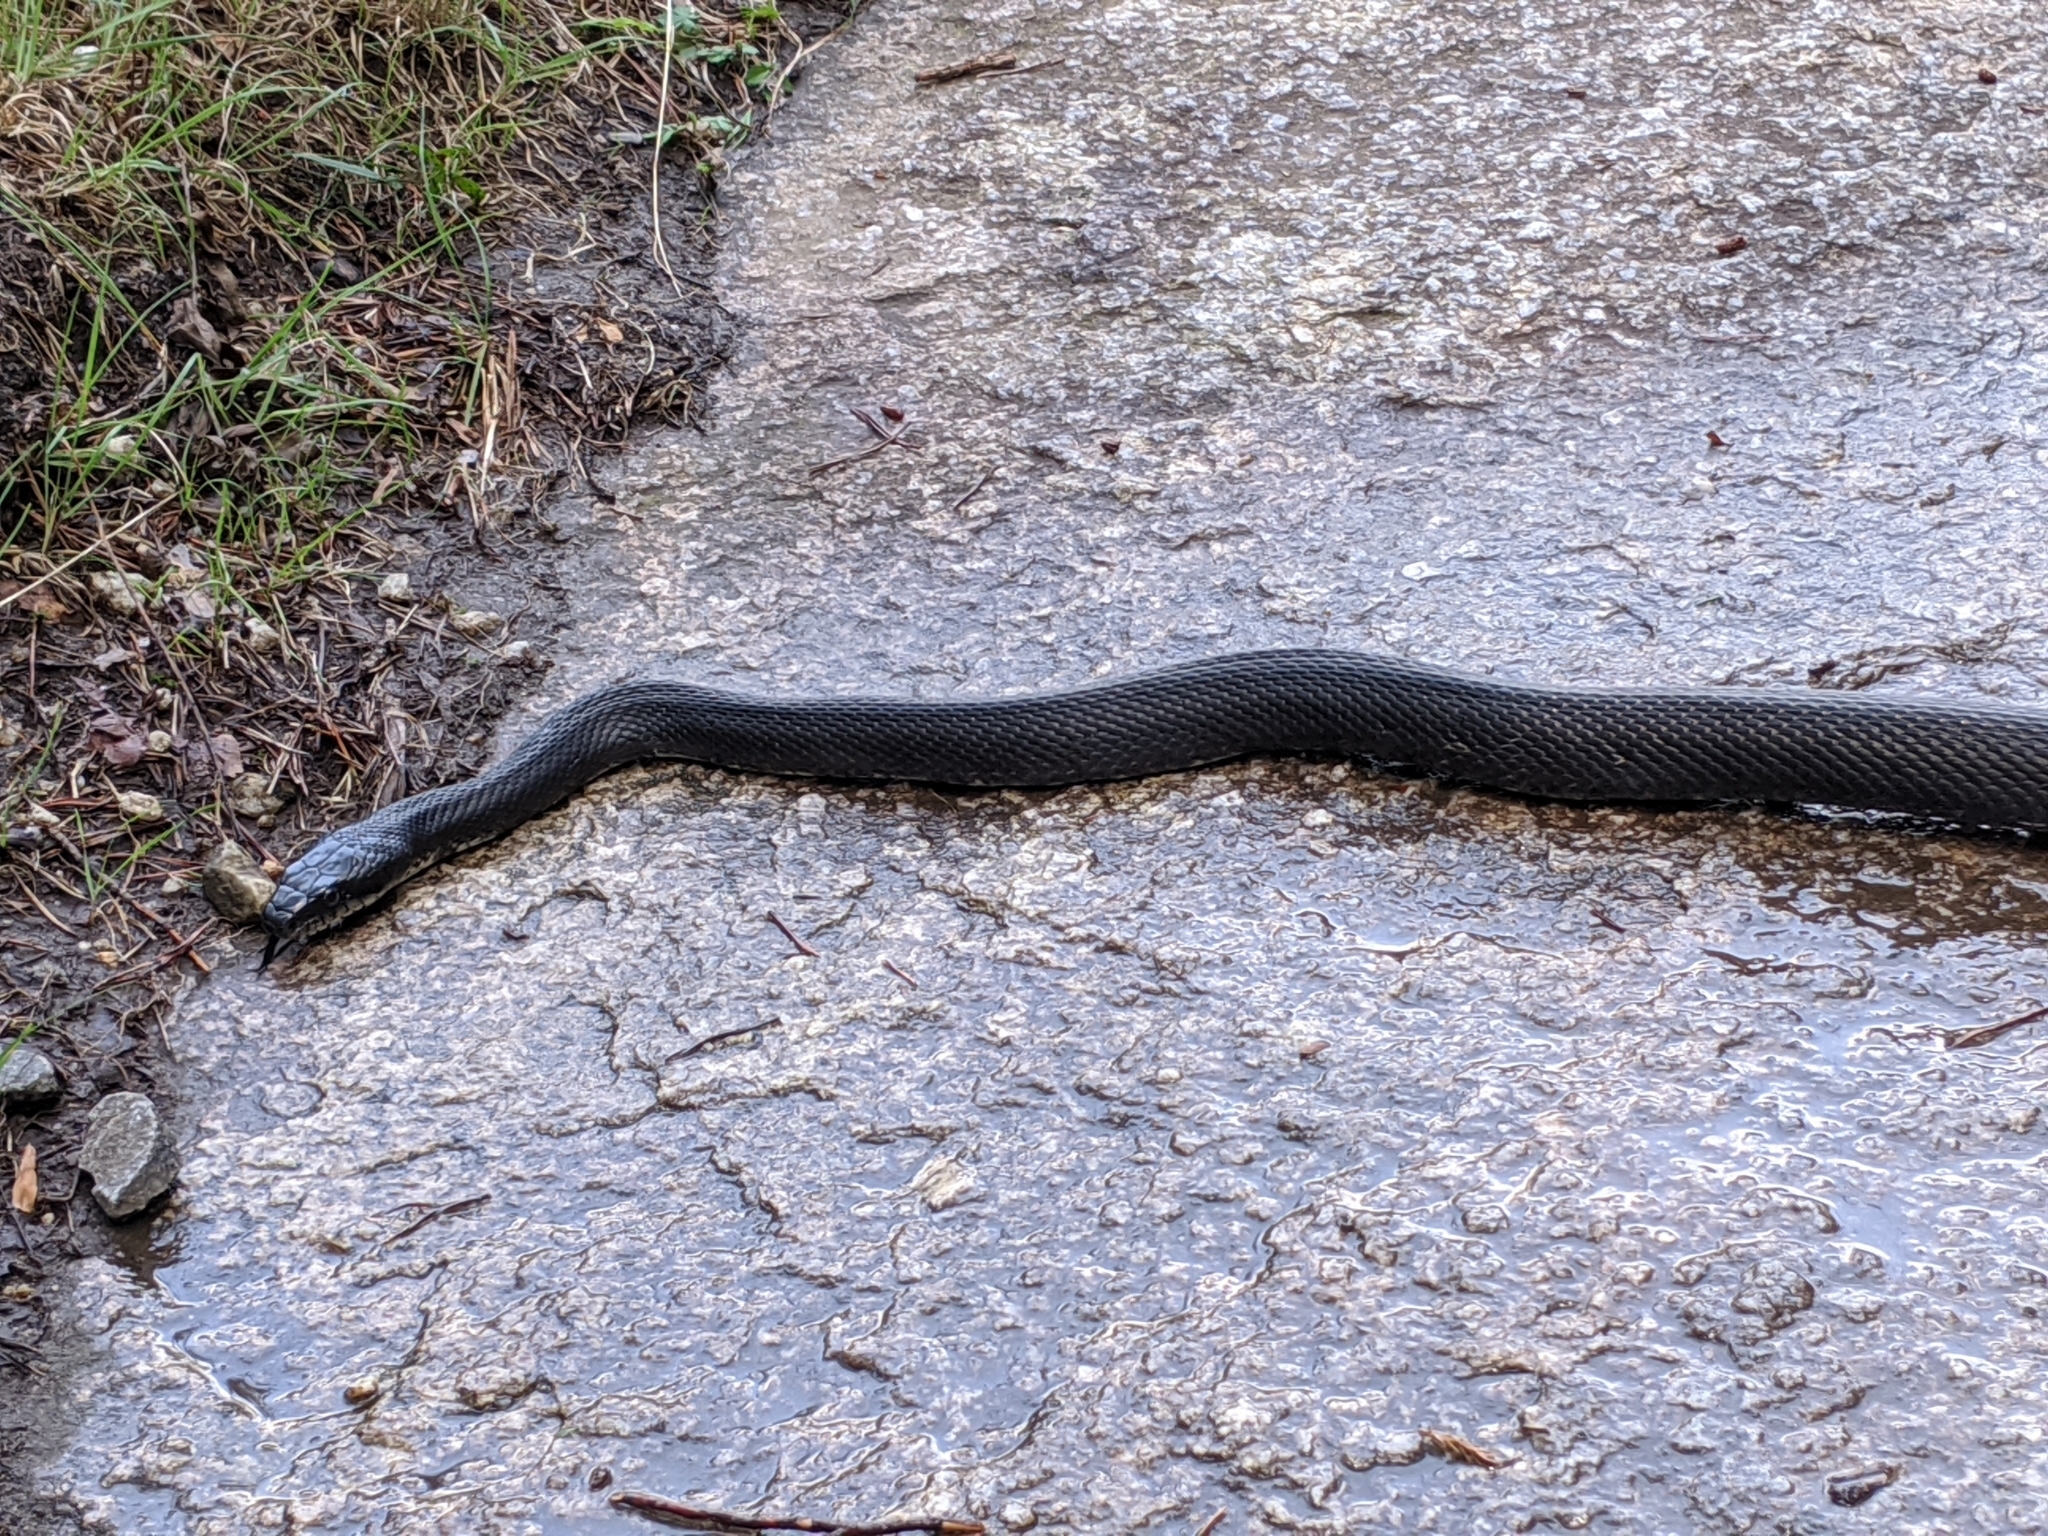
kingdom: Animalia
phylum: Chordata
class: Squamata
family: Colubridae
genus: Pantherophis
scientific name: Pantherophis alleghaniensis
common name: Eastern rat snake
